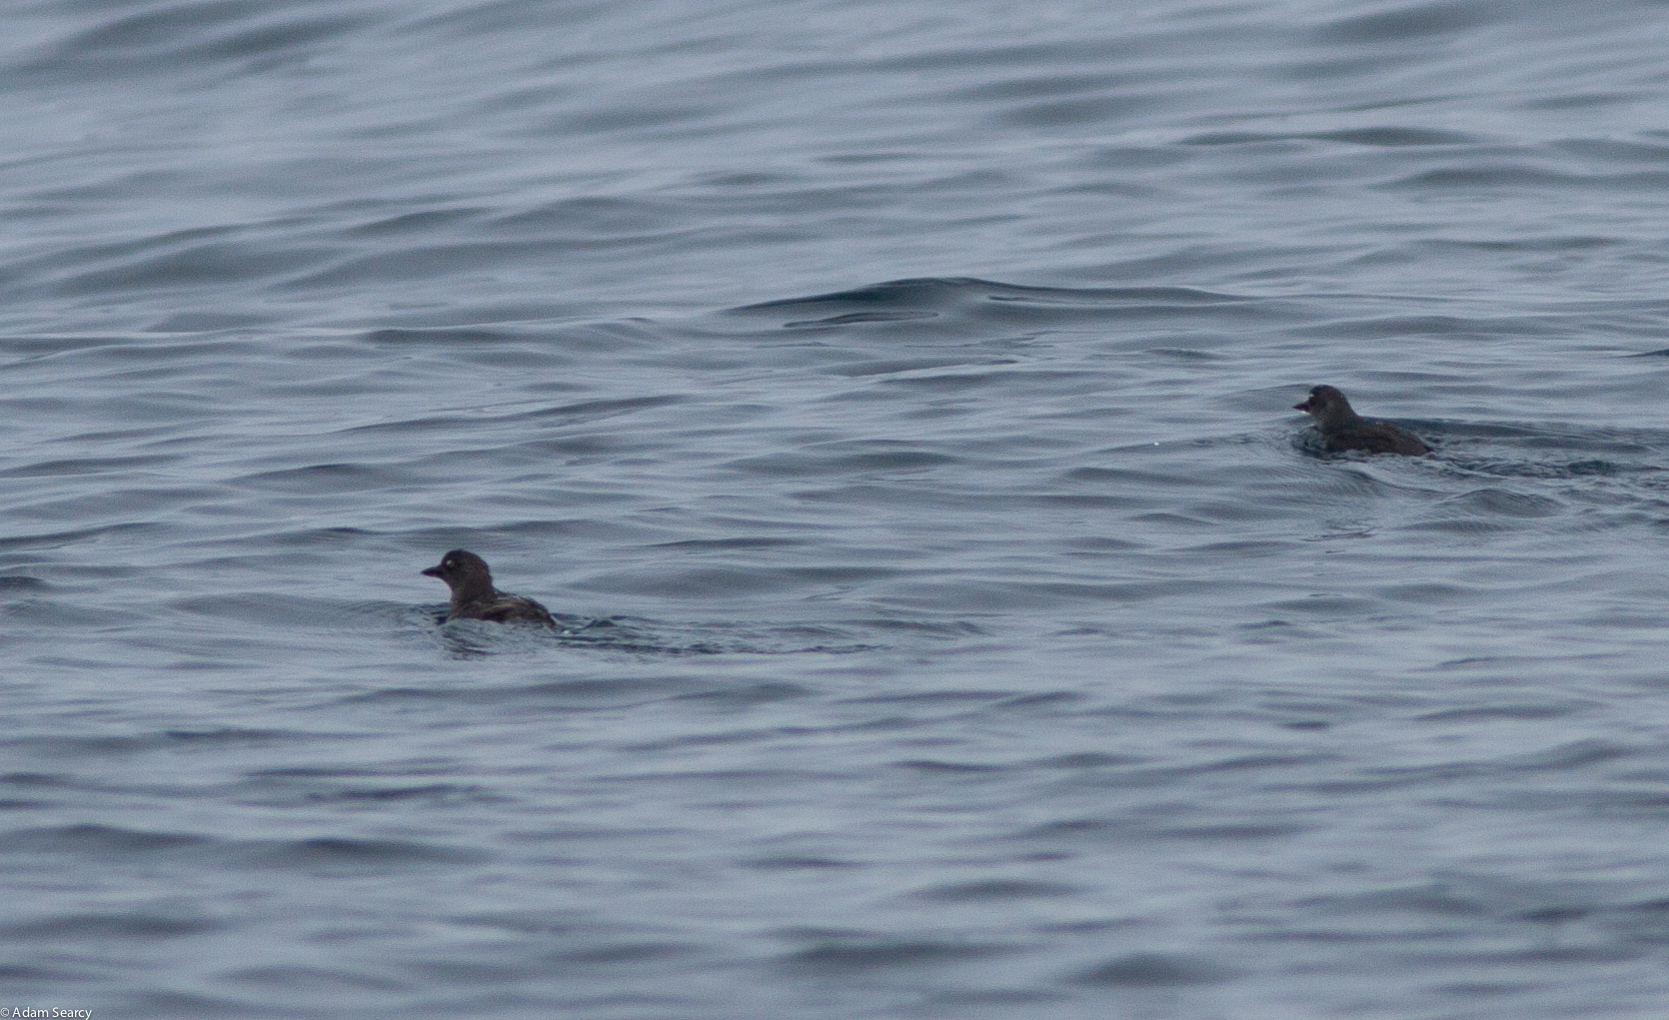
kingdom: Animalia
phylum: Chordata
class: Aves
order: Charadriiformes
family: Alcidae
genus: Ptychoramphus
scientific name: Ptychoramphus aleuticus
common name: Cassin's auklet
